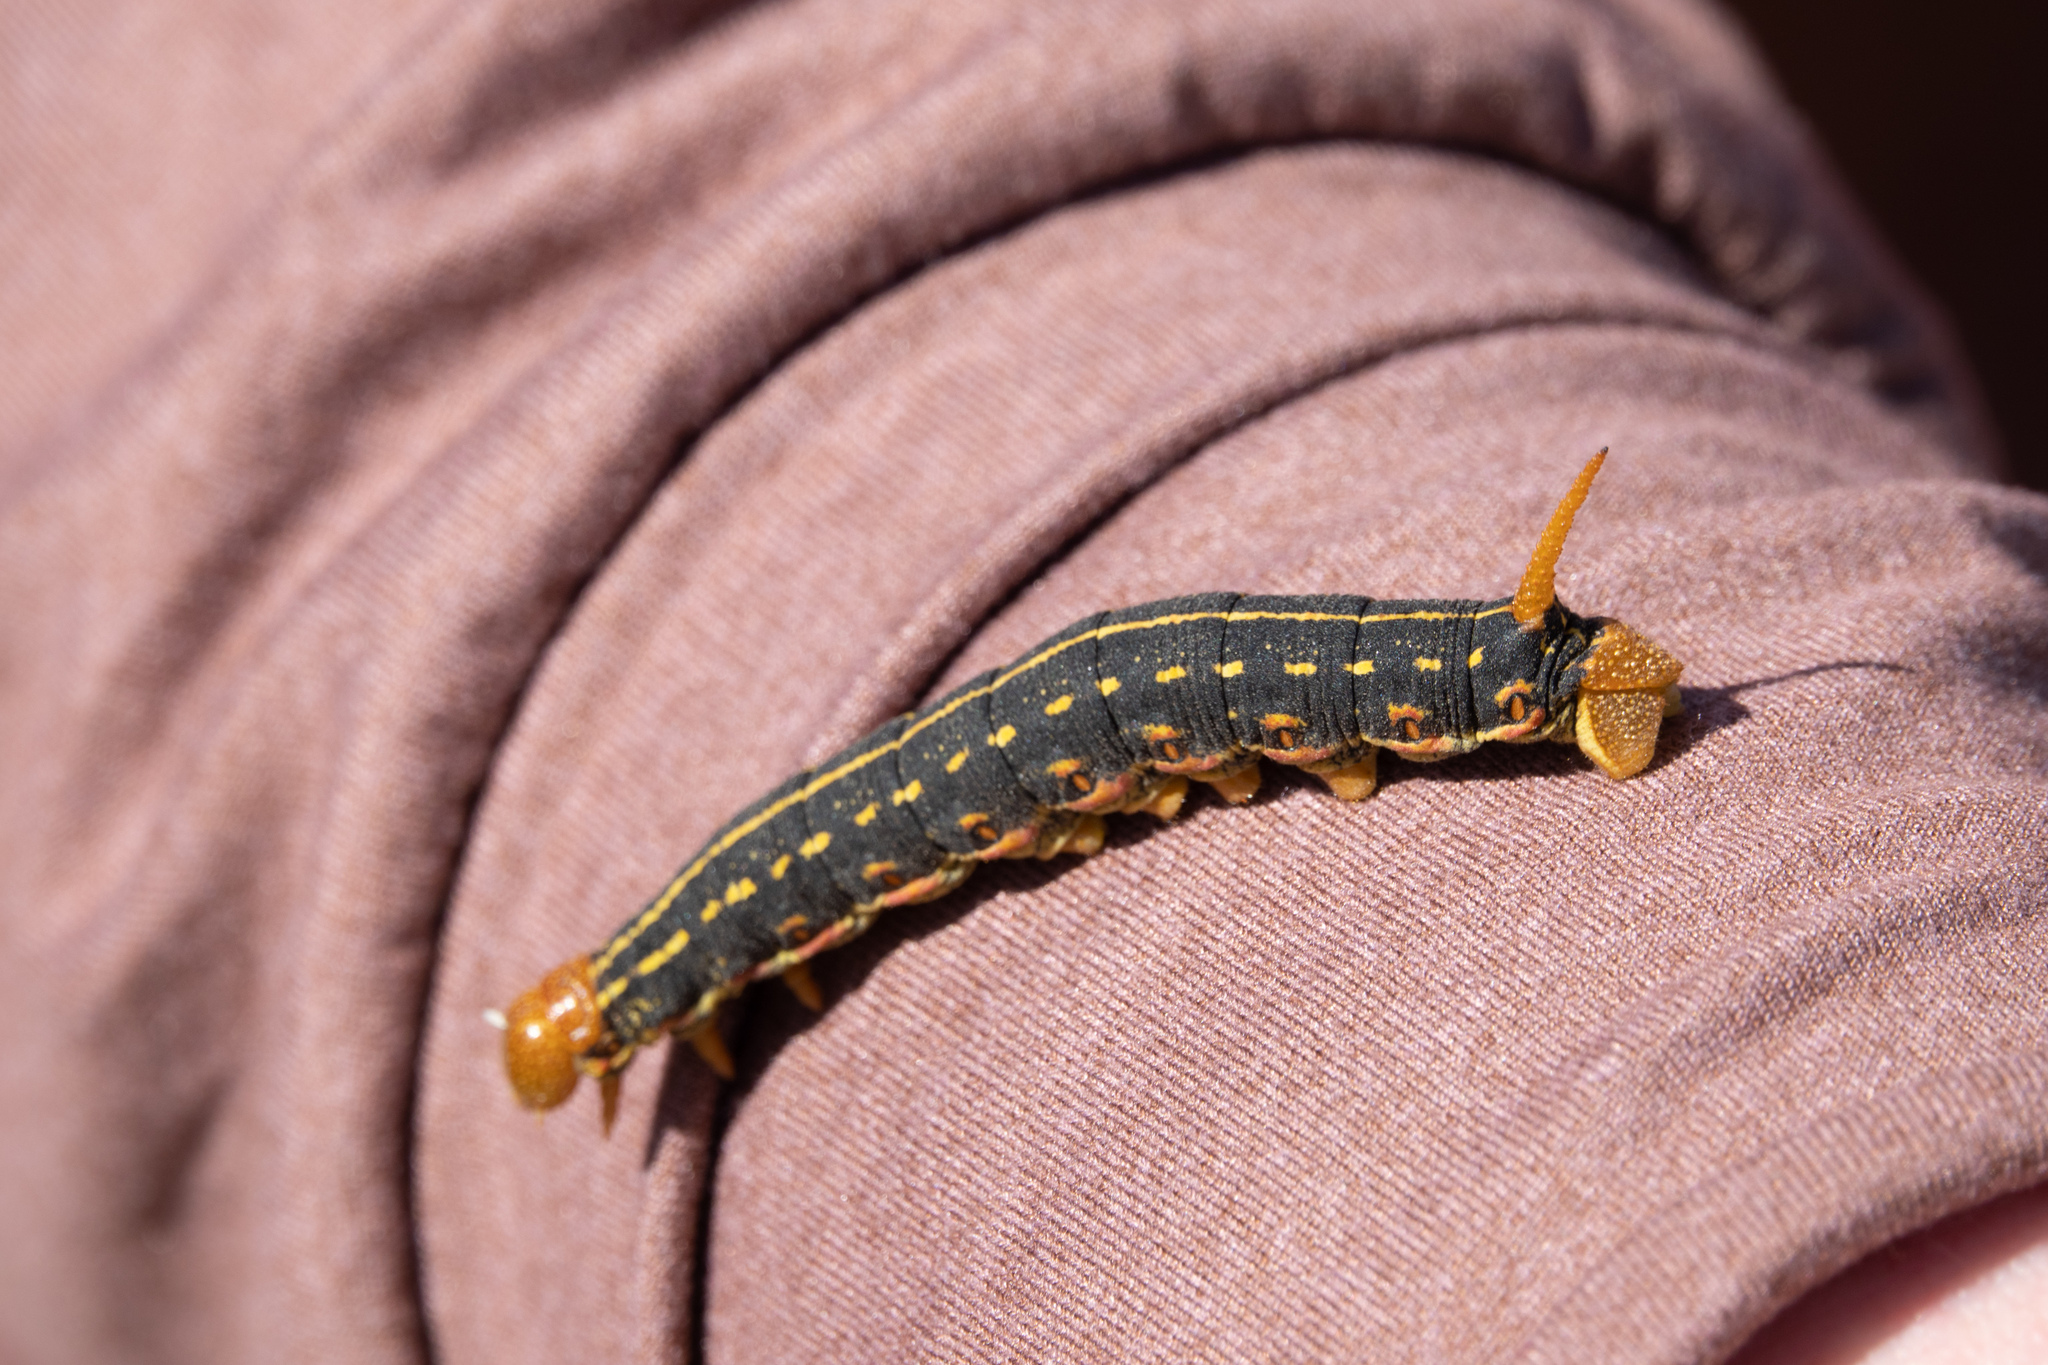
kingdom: Animalia
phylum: Arthropoda
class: Insecta
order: Lepidoptera
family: Sphingidae
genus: Hyles
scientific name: Hyles lineata
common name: White-lined sphinx
